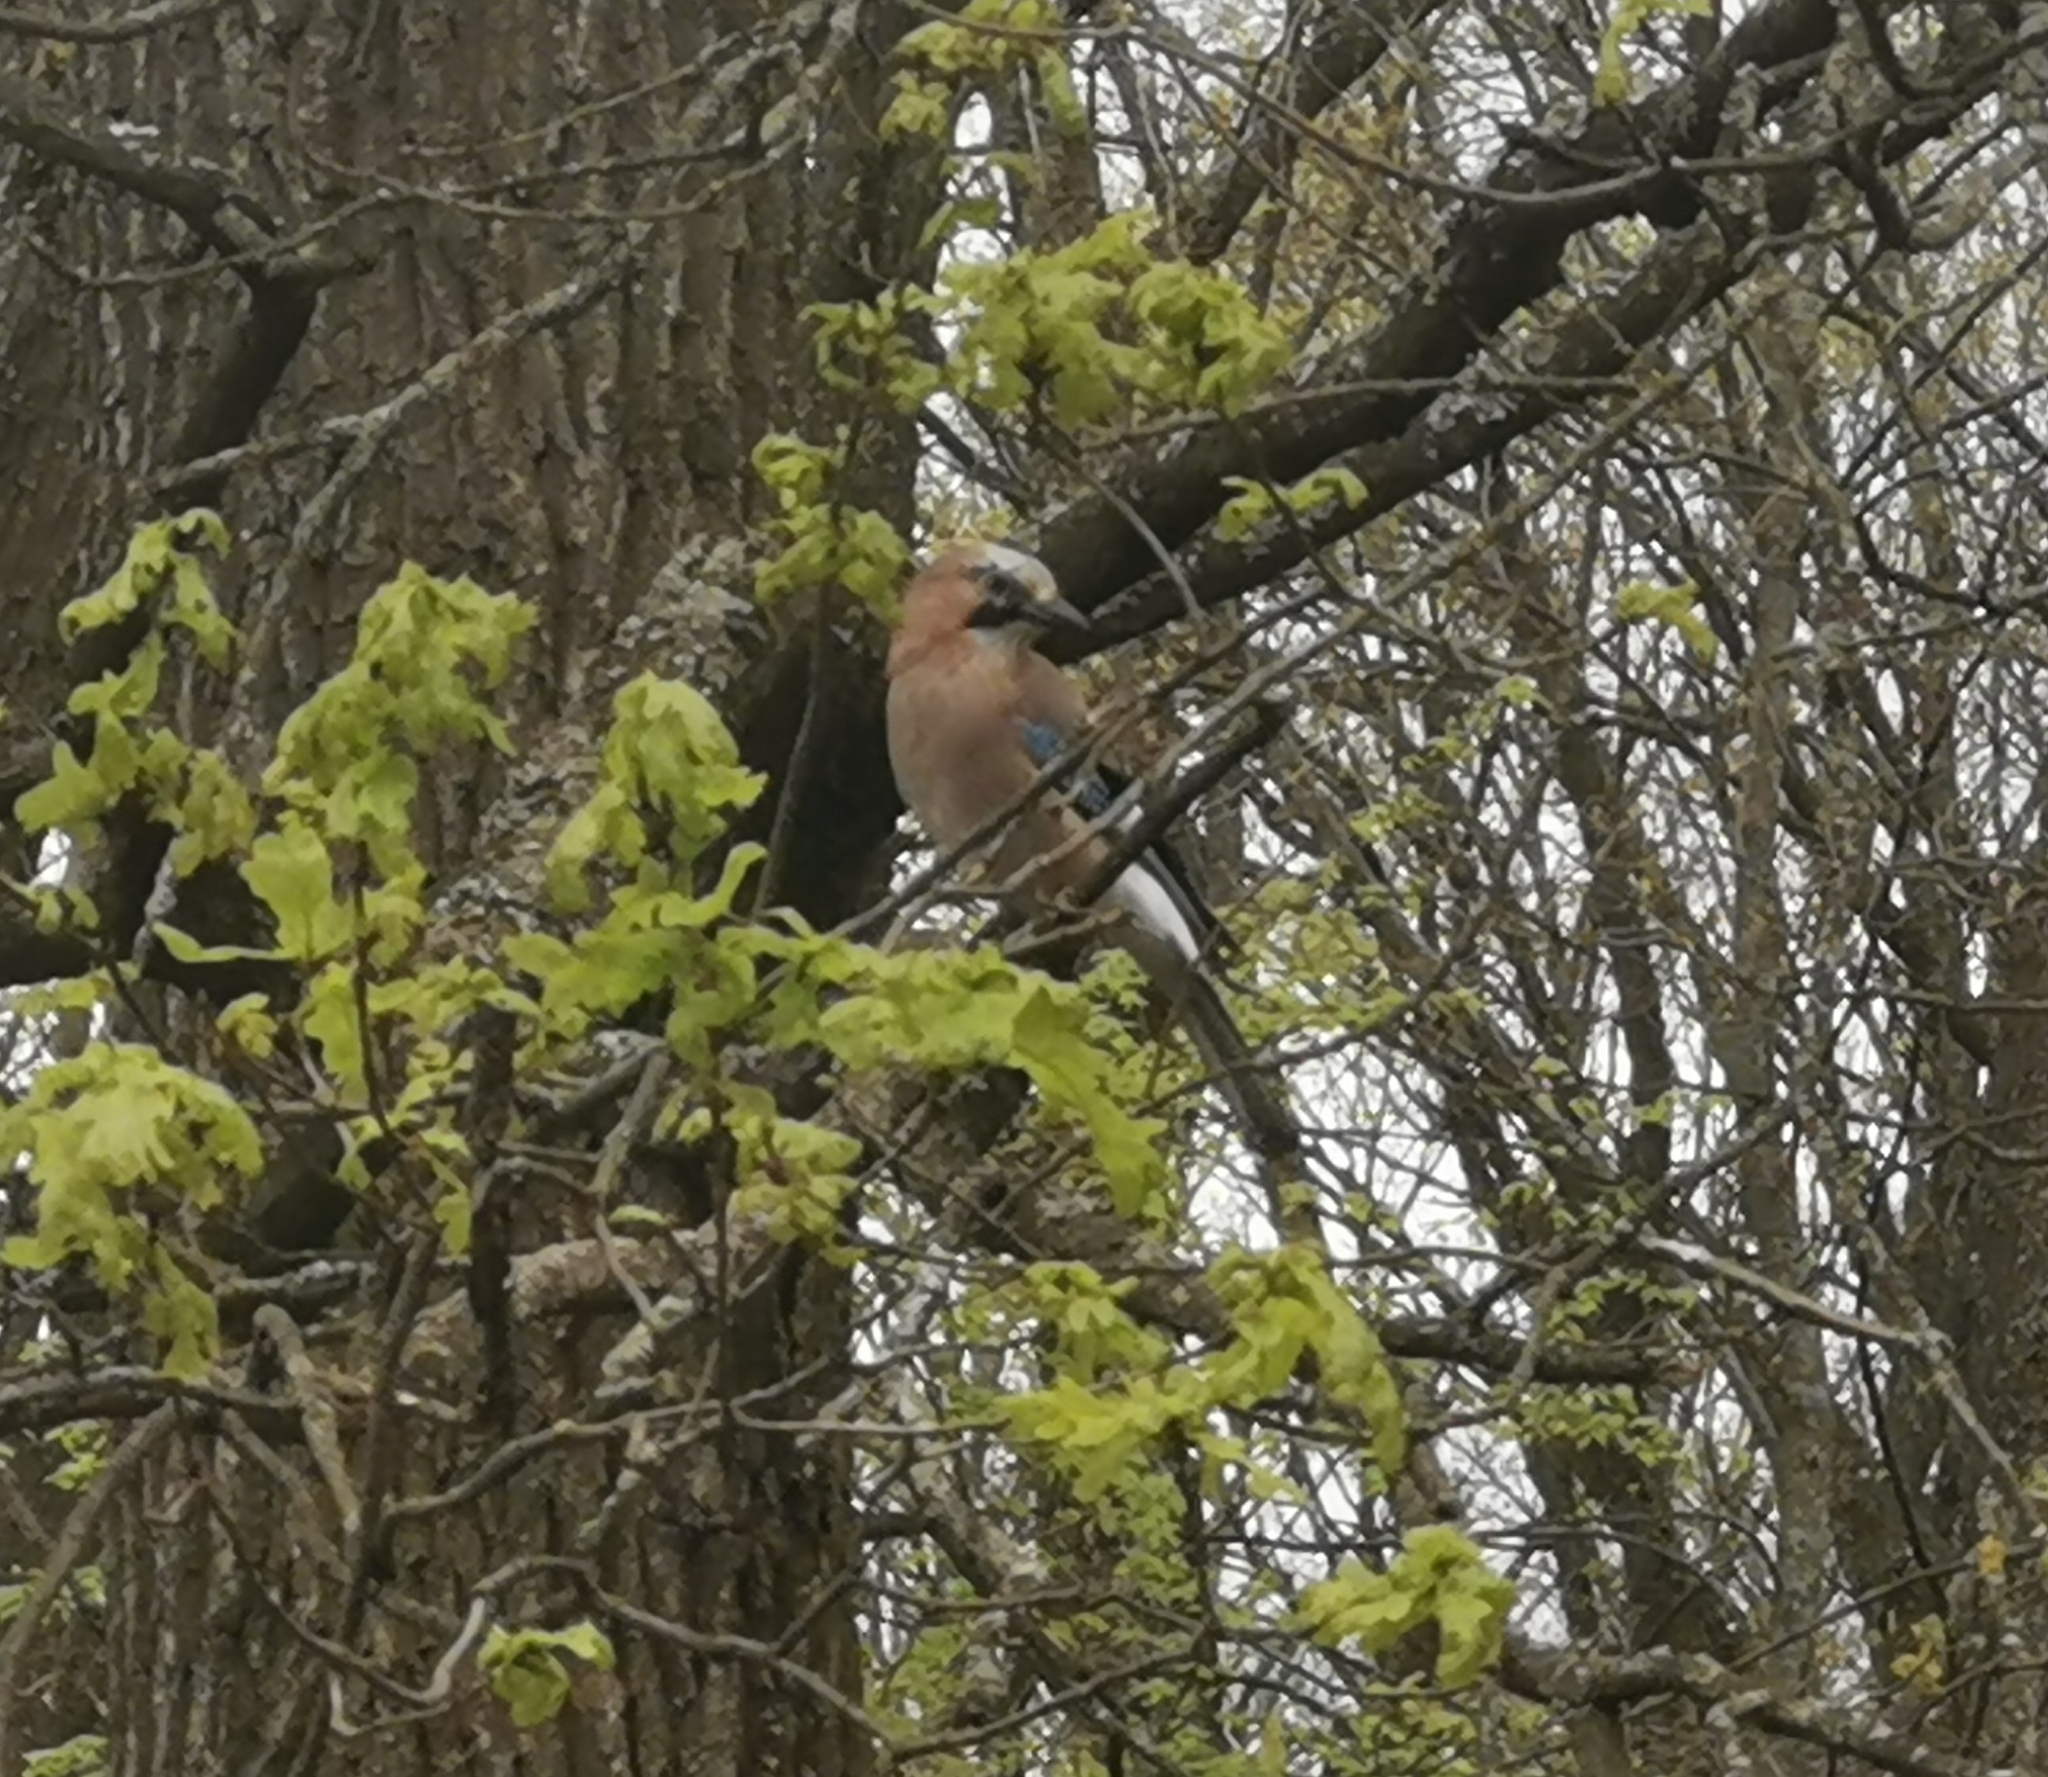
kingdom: Animalia
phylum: Chordata
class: Aves
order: Passeriformes
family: Corvidae
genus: Garrulus
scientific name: Garrulus glandarius
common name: Eurasian jay
